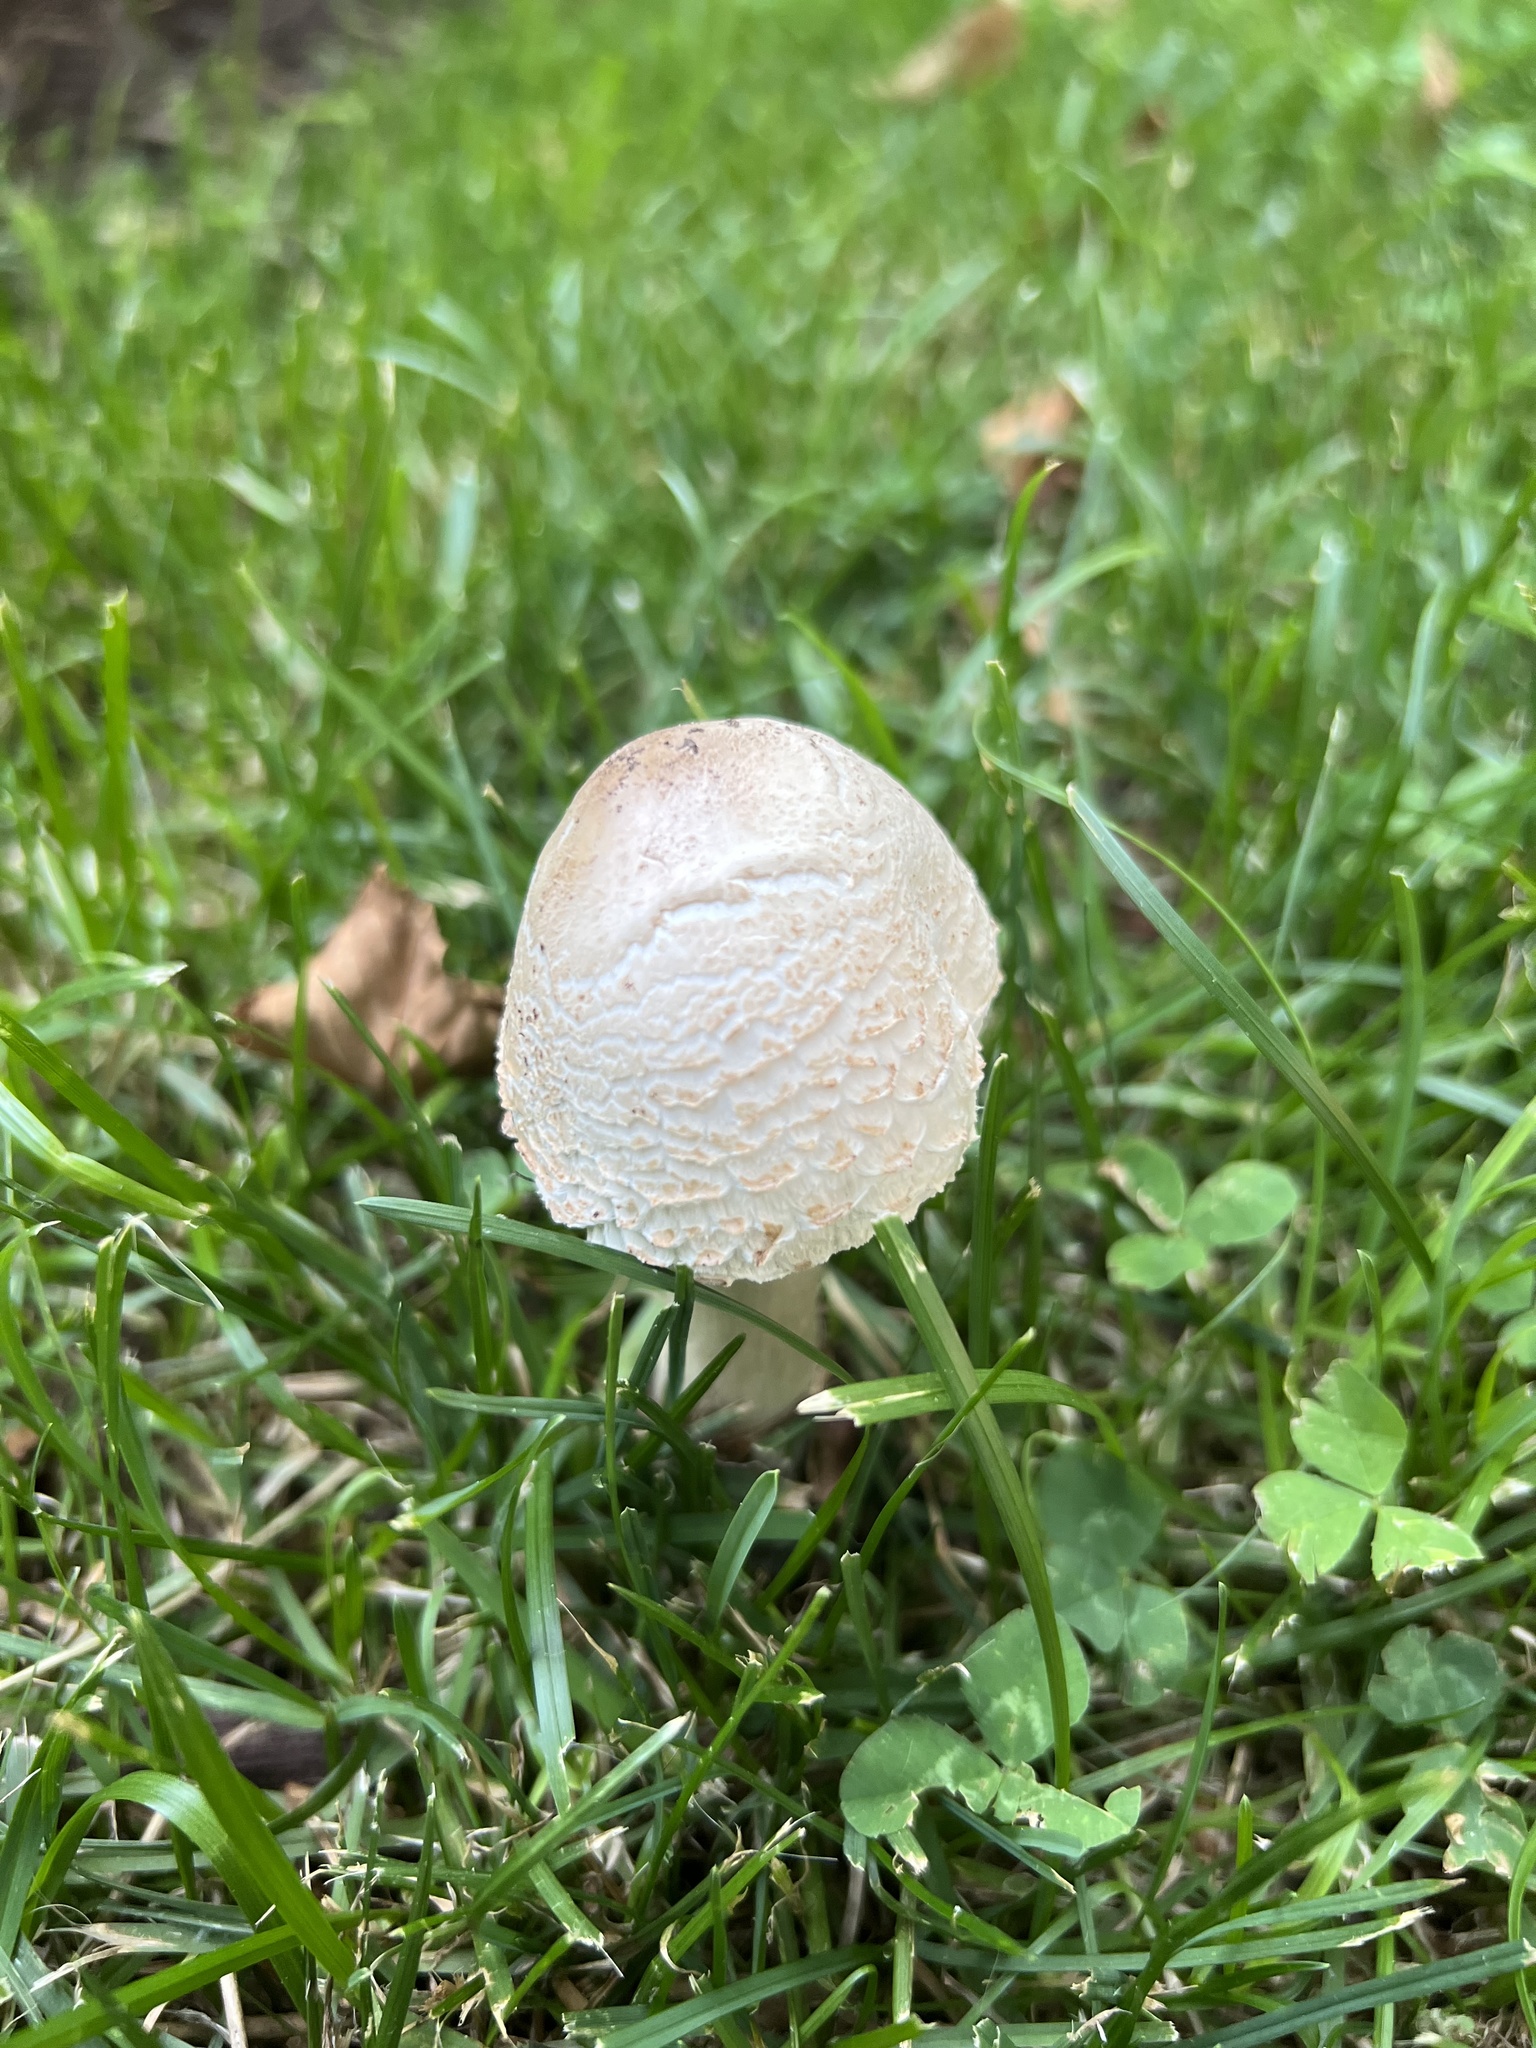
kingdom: Fungi
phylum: Basidiomycota
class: Agaricomycetes
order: Agaricales
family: Agaricaceae
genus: Chlorophyllum
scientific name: Chlorophyllum molybdites
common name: False parasol
